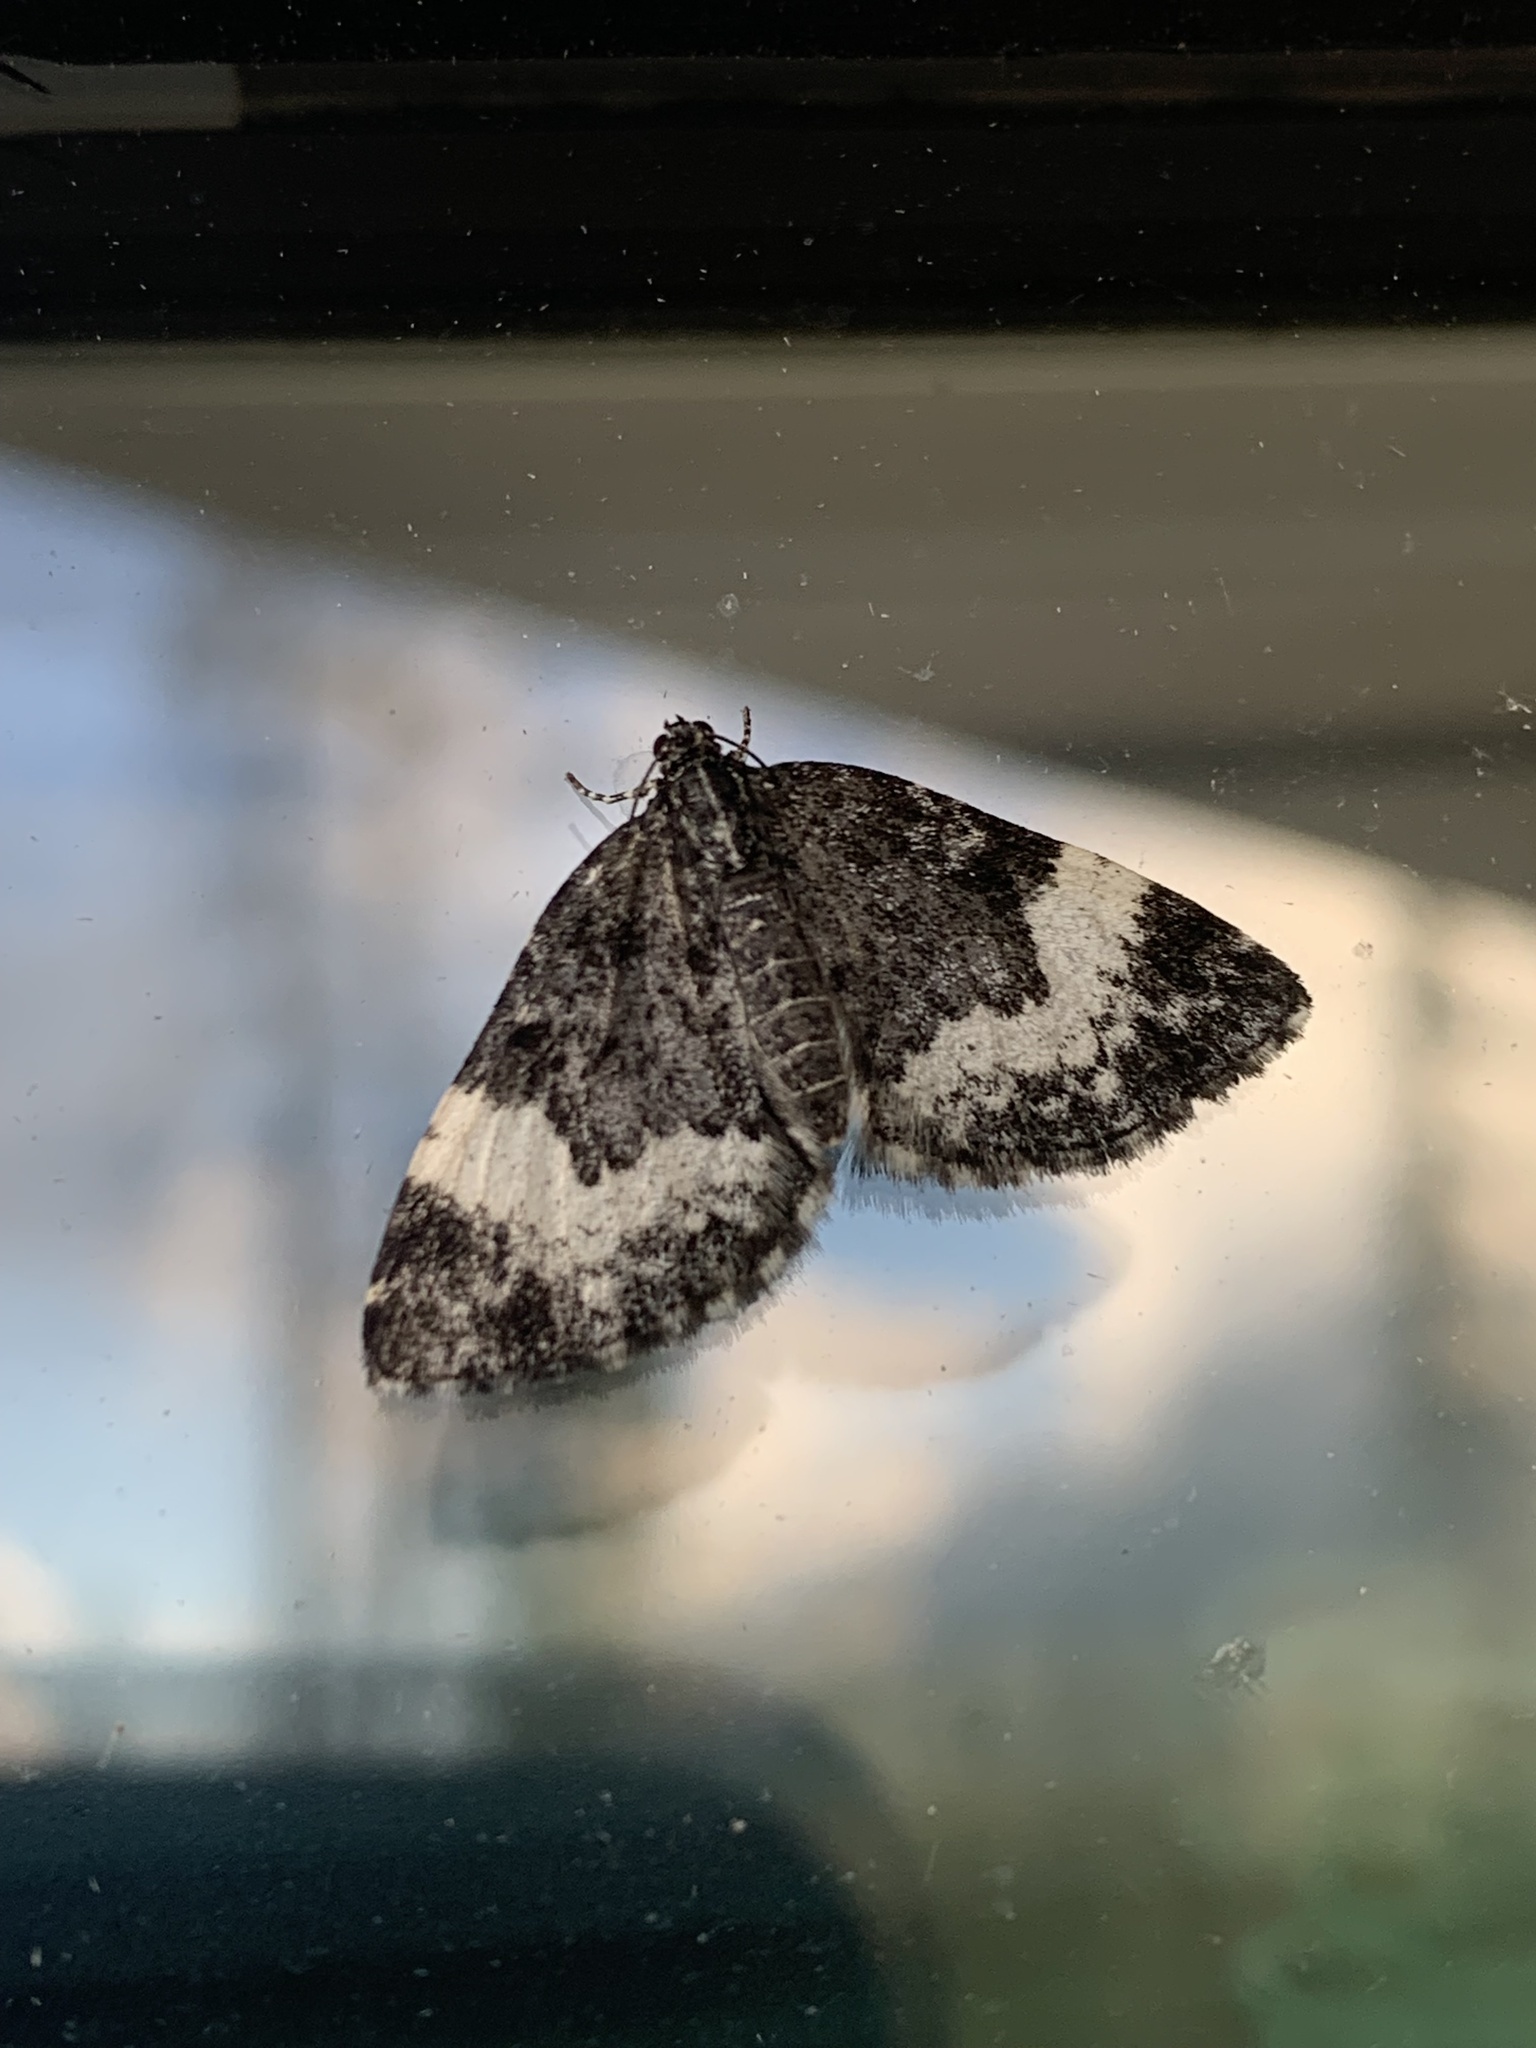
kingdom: Animalia
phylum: Arthropoda
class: Insecta
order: Lepidoptera
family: Geometridae
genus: Spargania
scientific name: Spargania luctuata
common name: White-banded carpet
